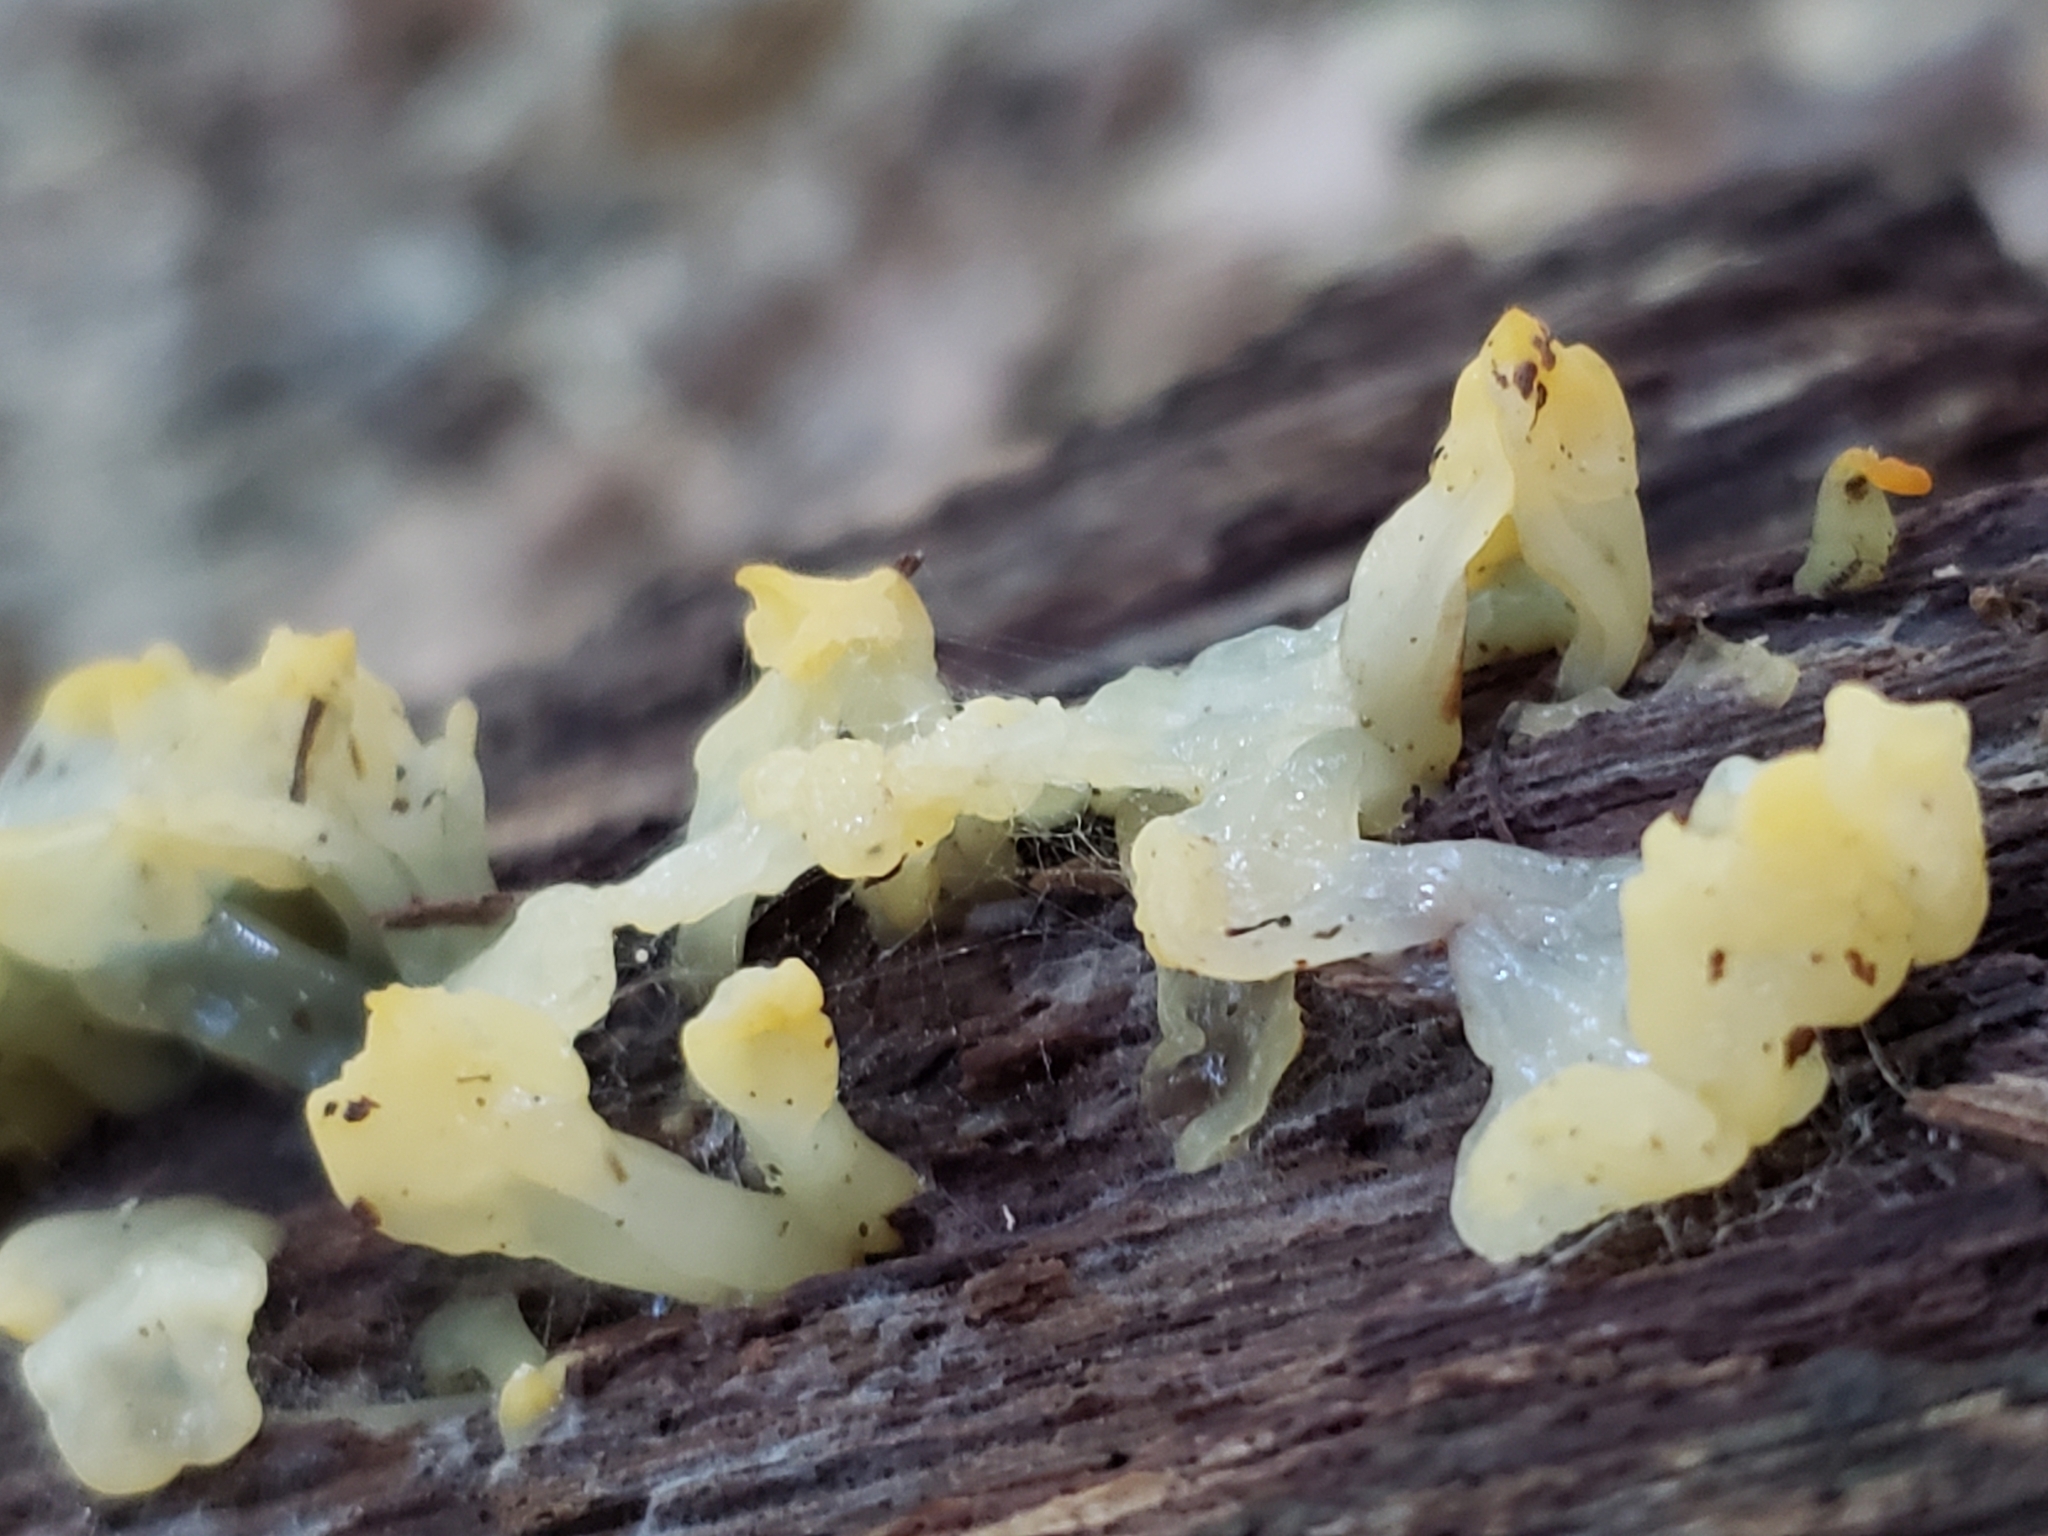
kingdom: Fungi
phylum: Basidiomycota
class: Dacrymycetes
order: Dacrymycetales
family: Dacrymycetaceae
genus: Dacrymyces
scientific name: Dacrymyces spathularius
